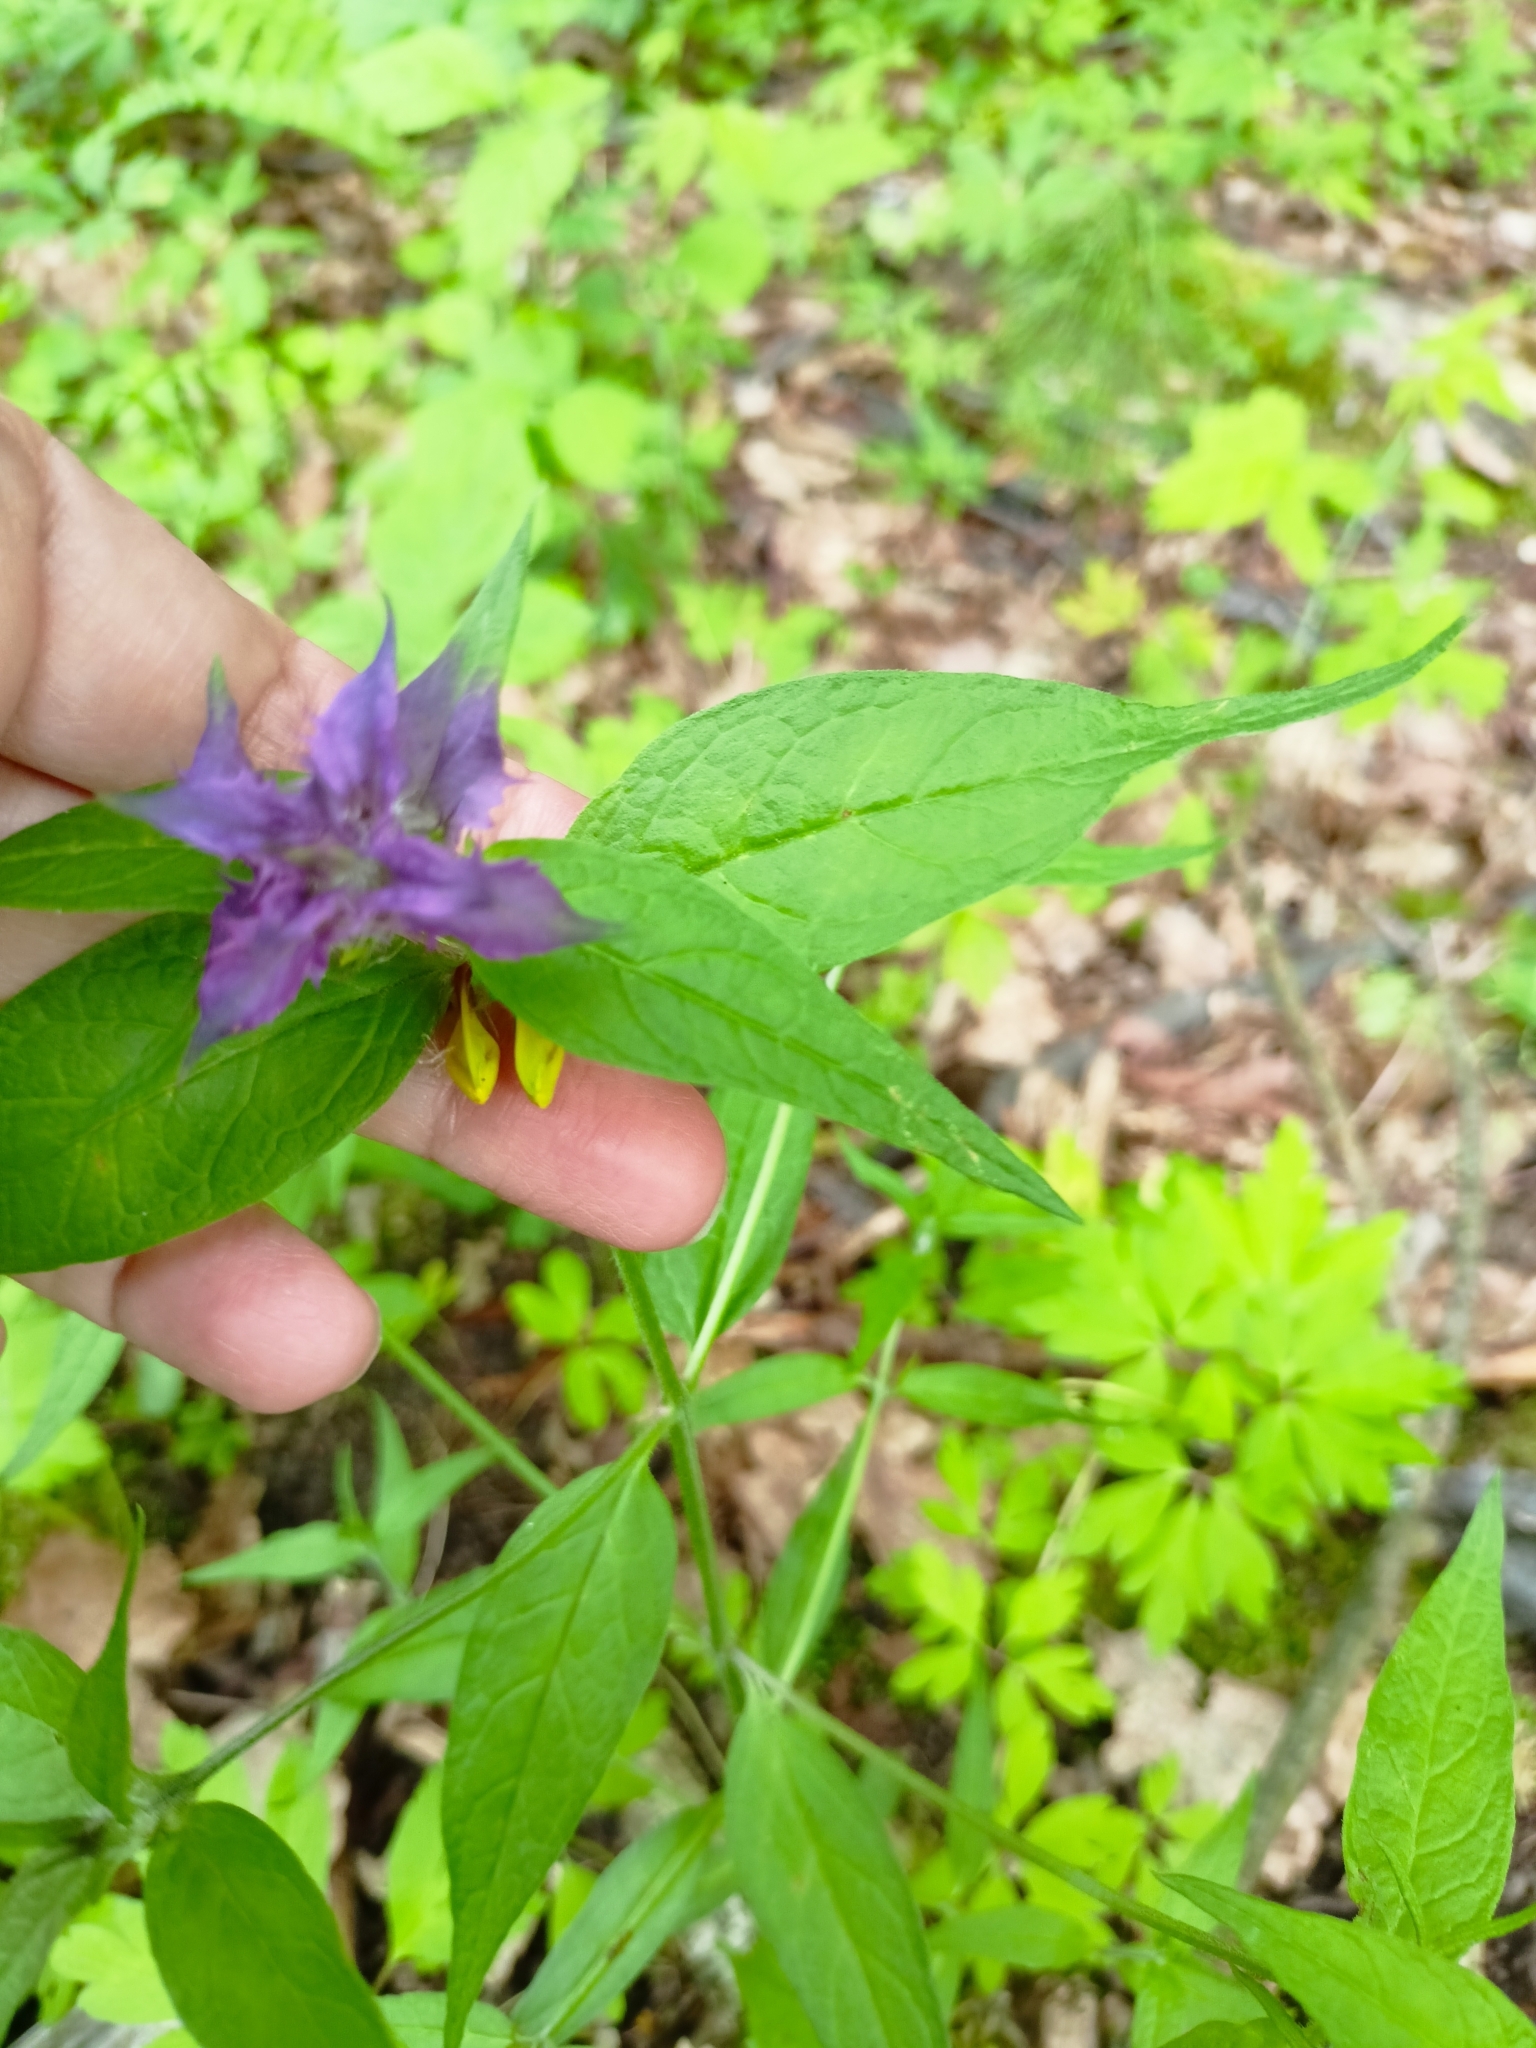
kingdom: Plantae
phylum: Tracheophyta
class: Magnoliopsida
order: Lamiales
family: Orobanchaceae
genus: Melampyrum
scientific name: Melampyrum nemorosum
